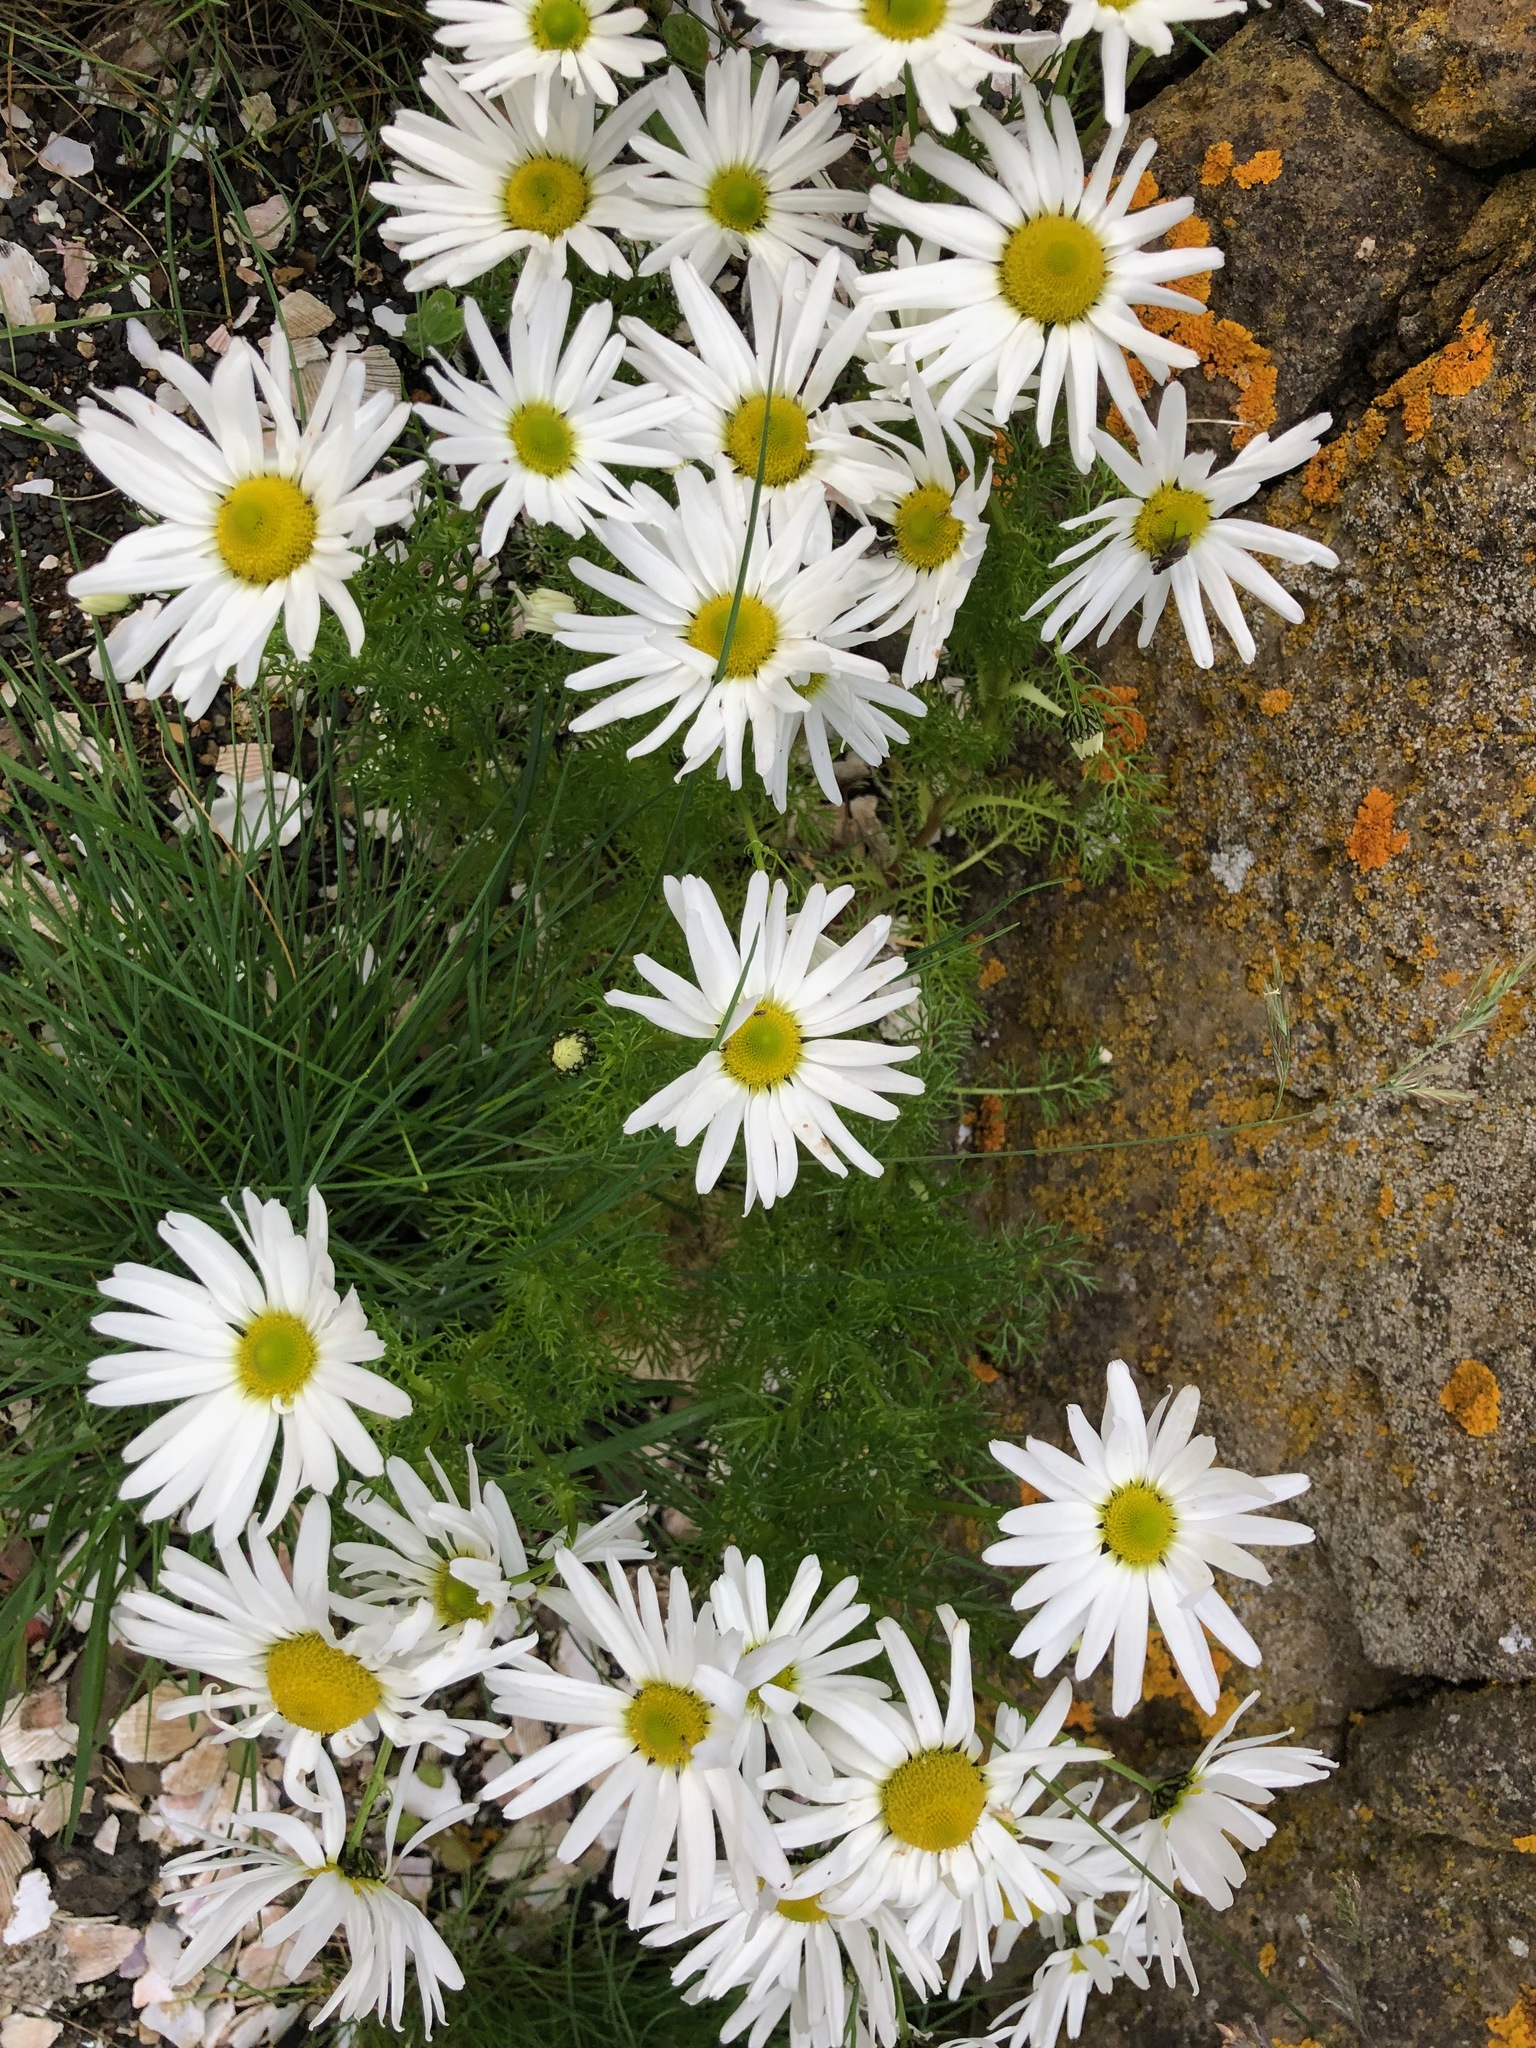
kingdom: Plantae
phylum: Tracheophyta
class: Magnoliopsida
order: Asterales
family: Asteraceae
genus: Tripleurospermum
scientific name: Tripleurospermum maritimum
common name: Sea mayweed
